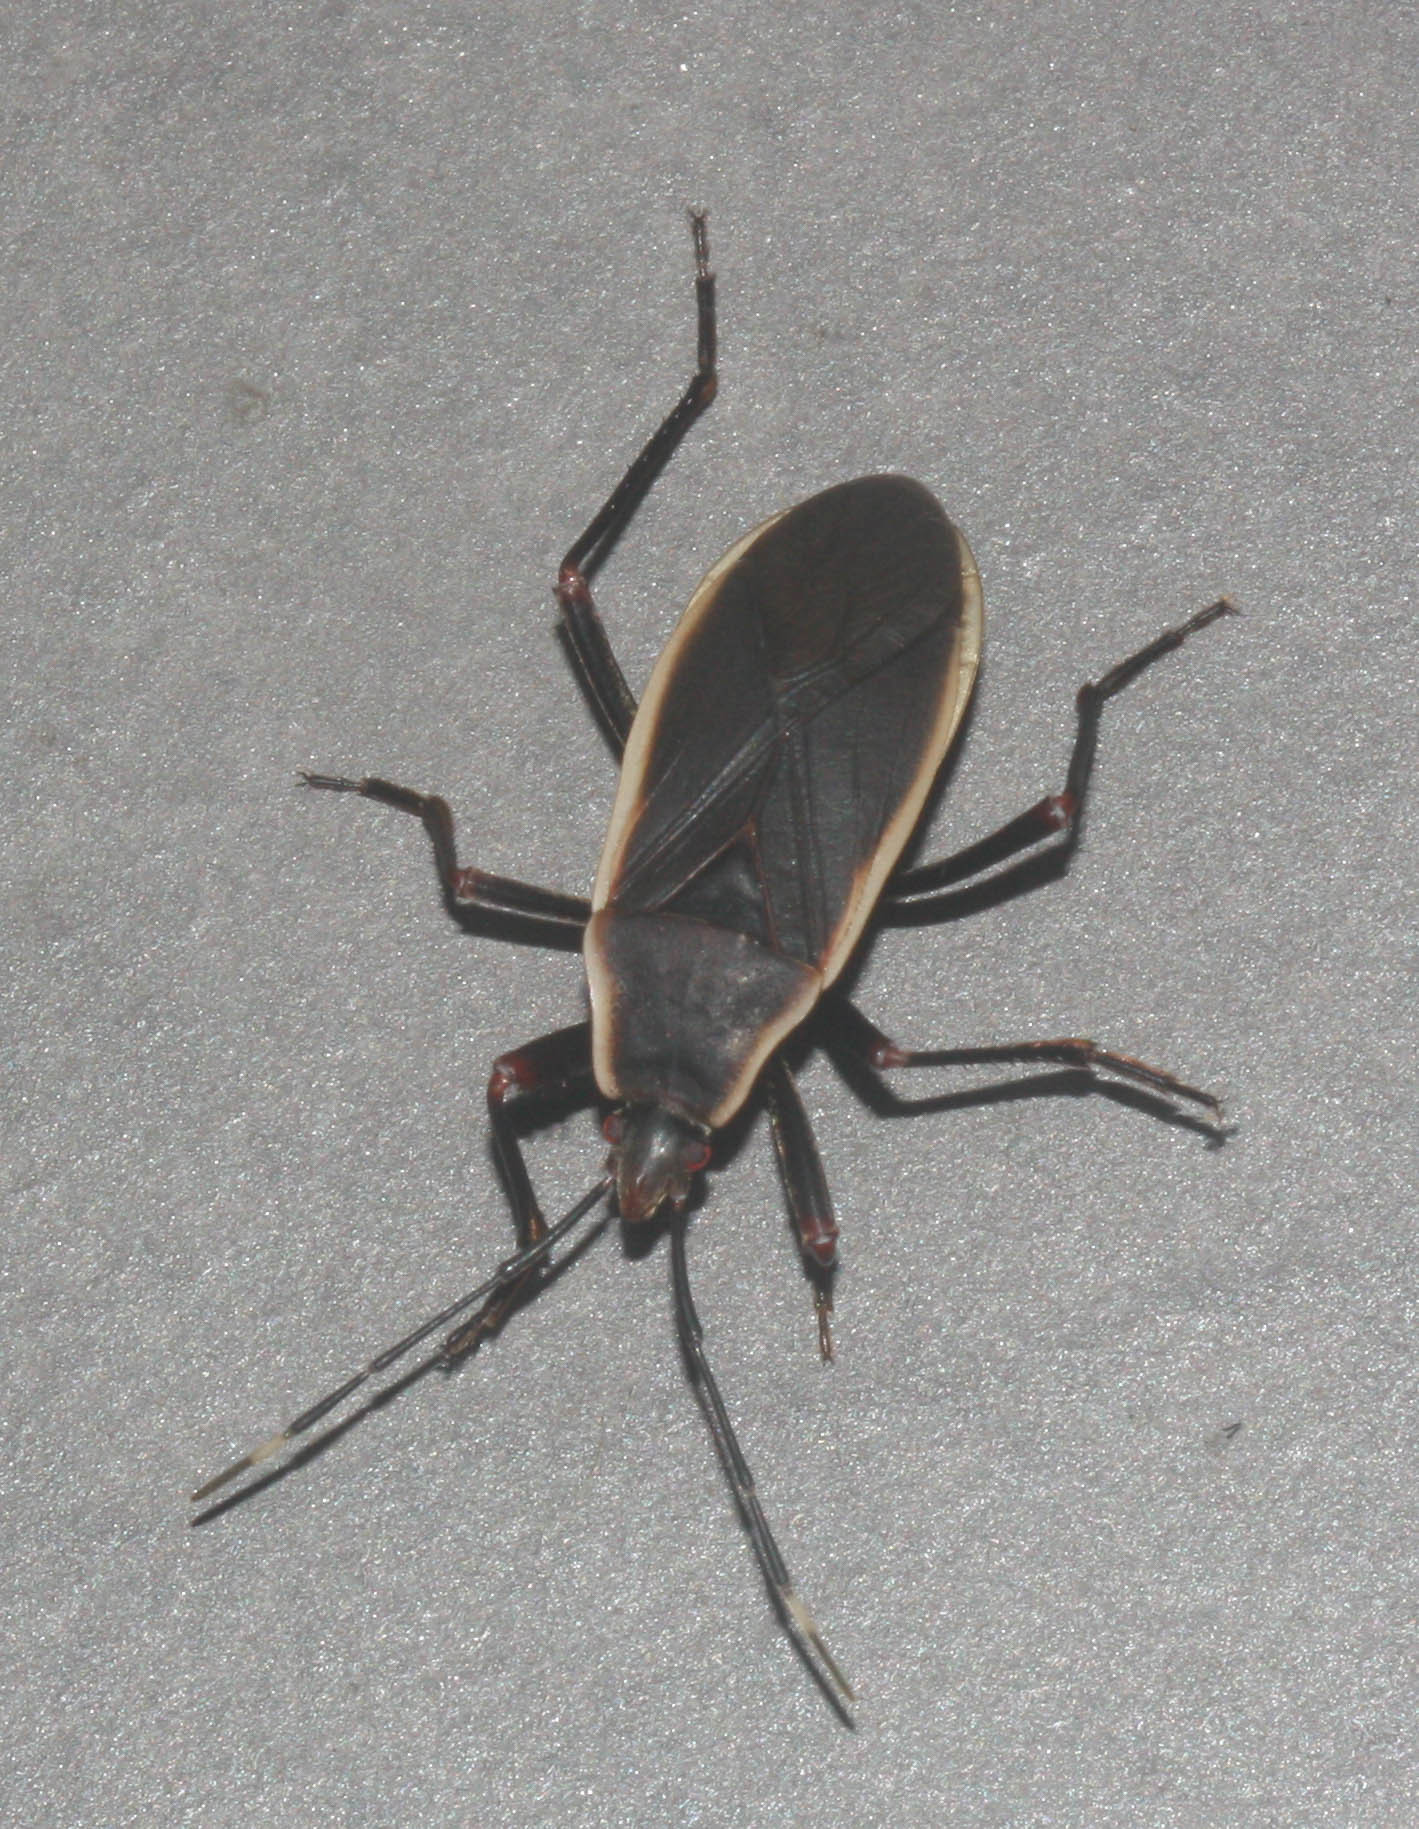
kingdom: Animalia
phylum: Arthropoda
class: Insecta
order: Hemiptera
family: Largidae
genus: Iphita
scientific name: Iphita limbata
